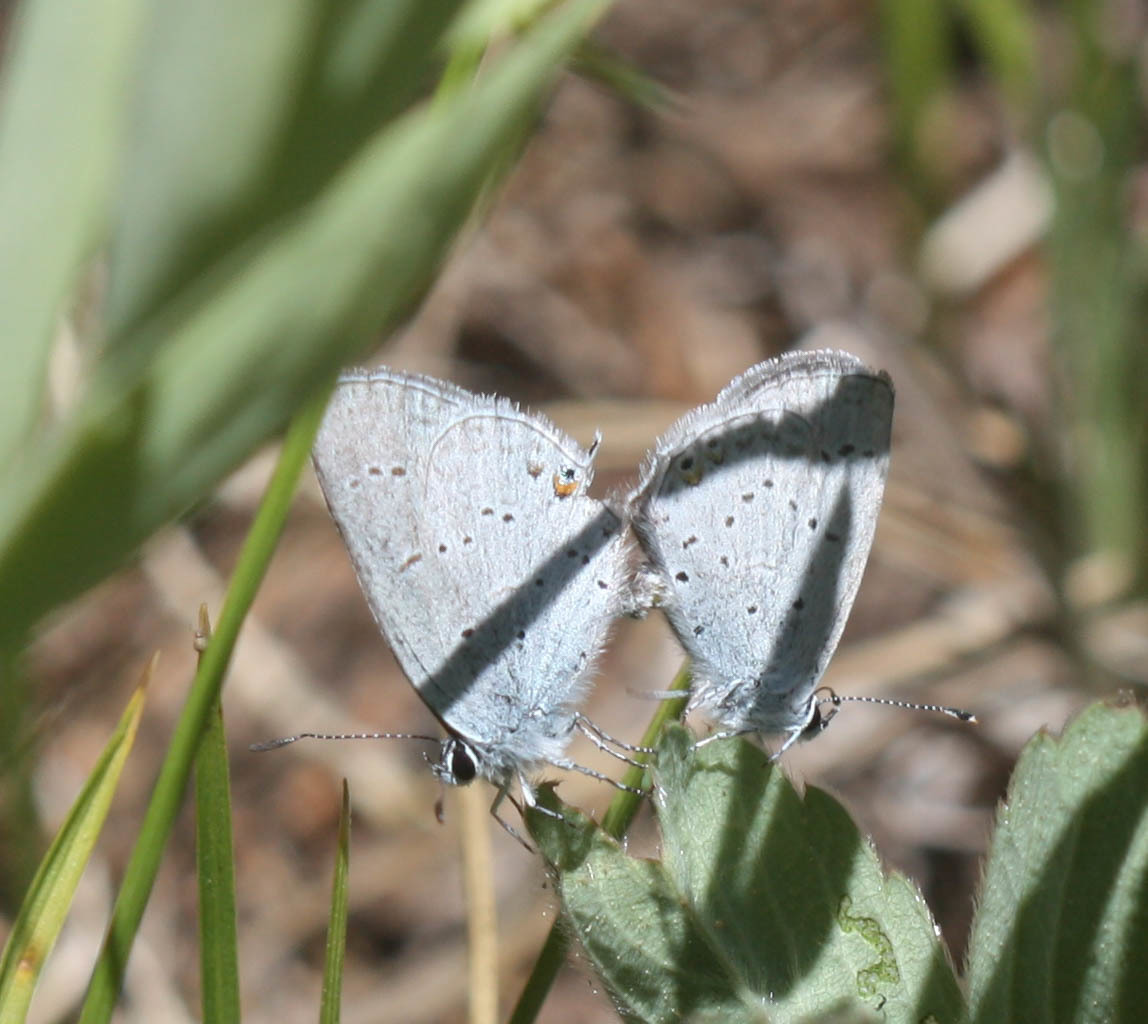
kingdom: Animalia
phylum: Arthropoda
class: Insecta
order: Lepidoptera
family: Lycaenidae
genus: Elkalyce
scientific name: Elkalyce amyntula
